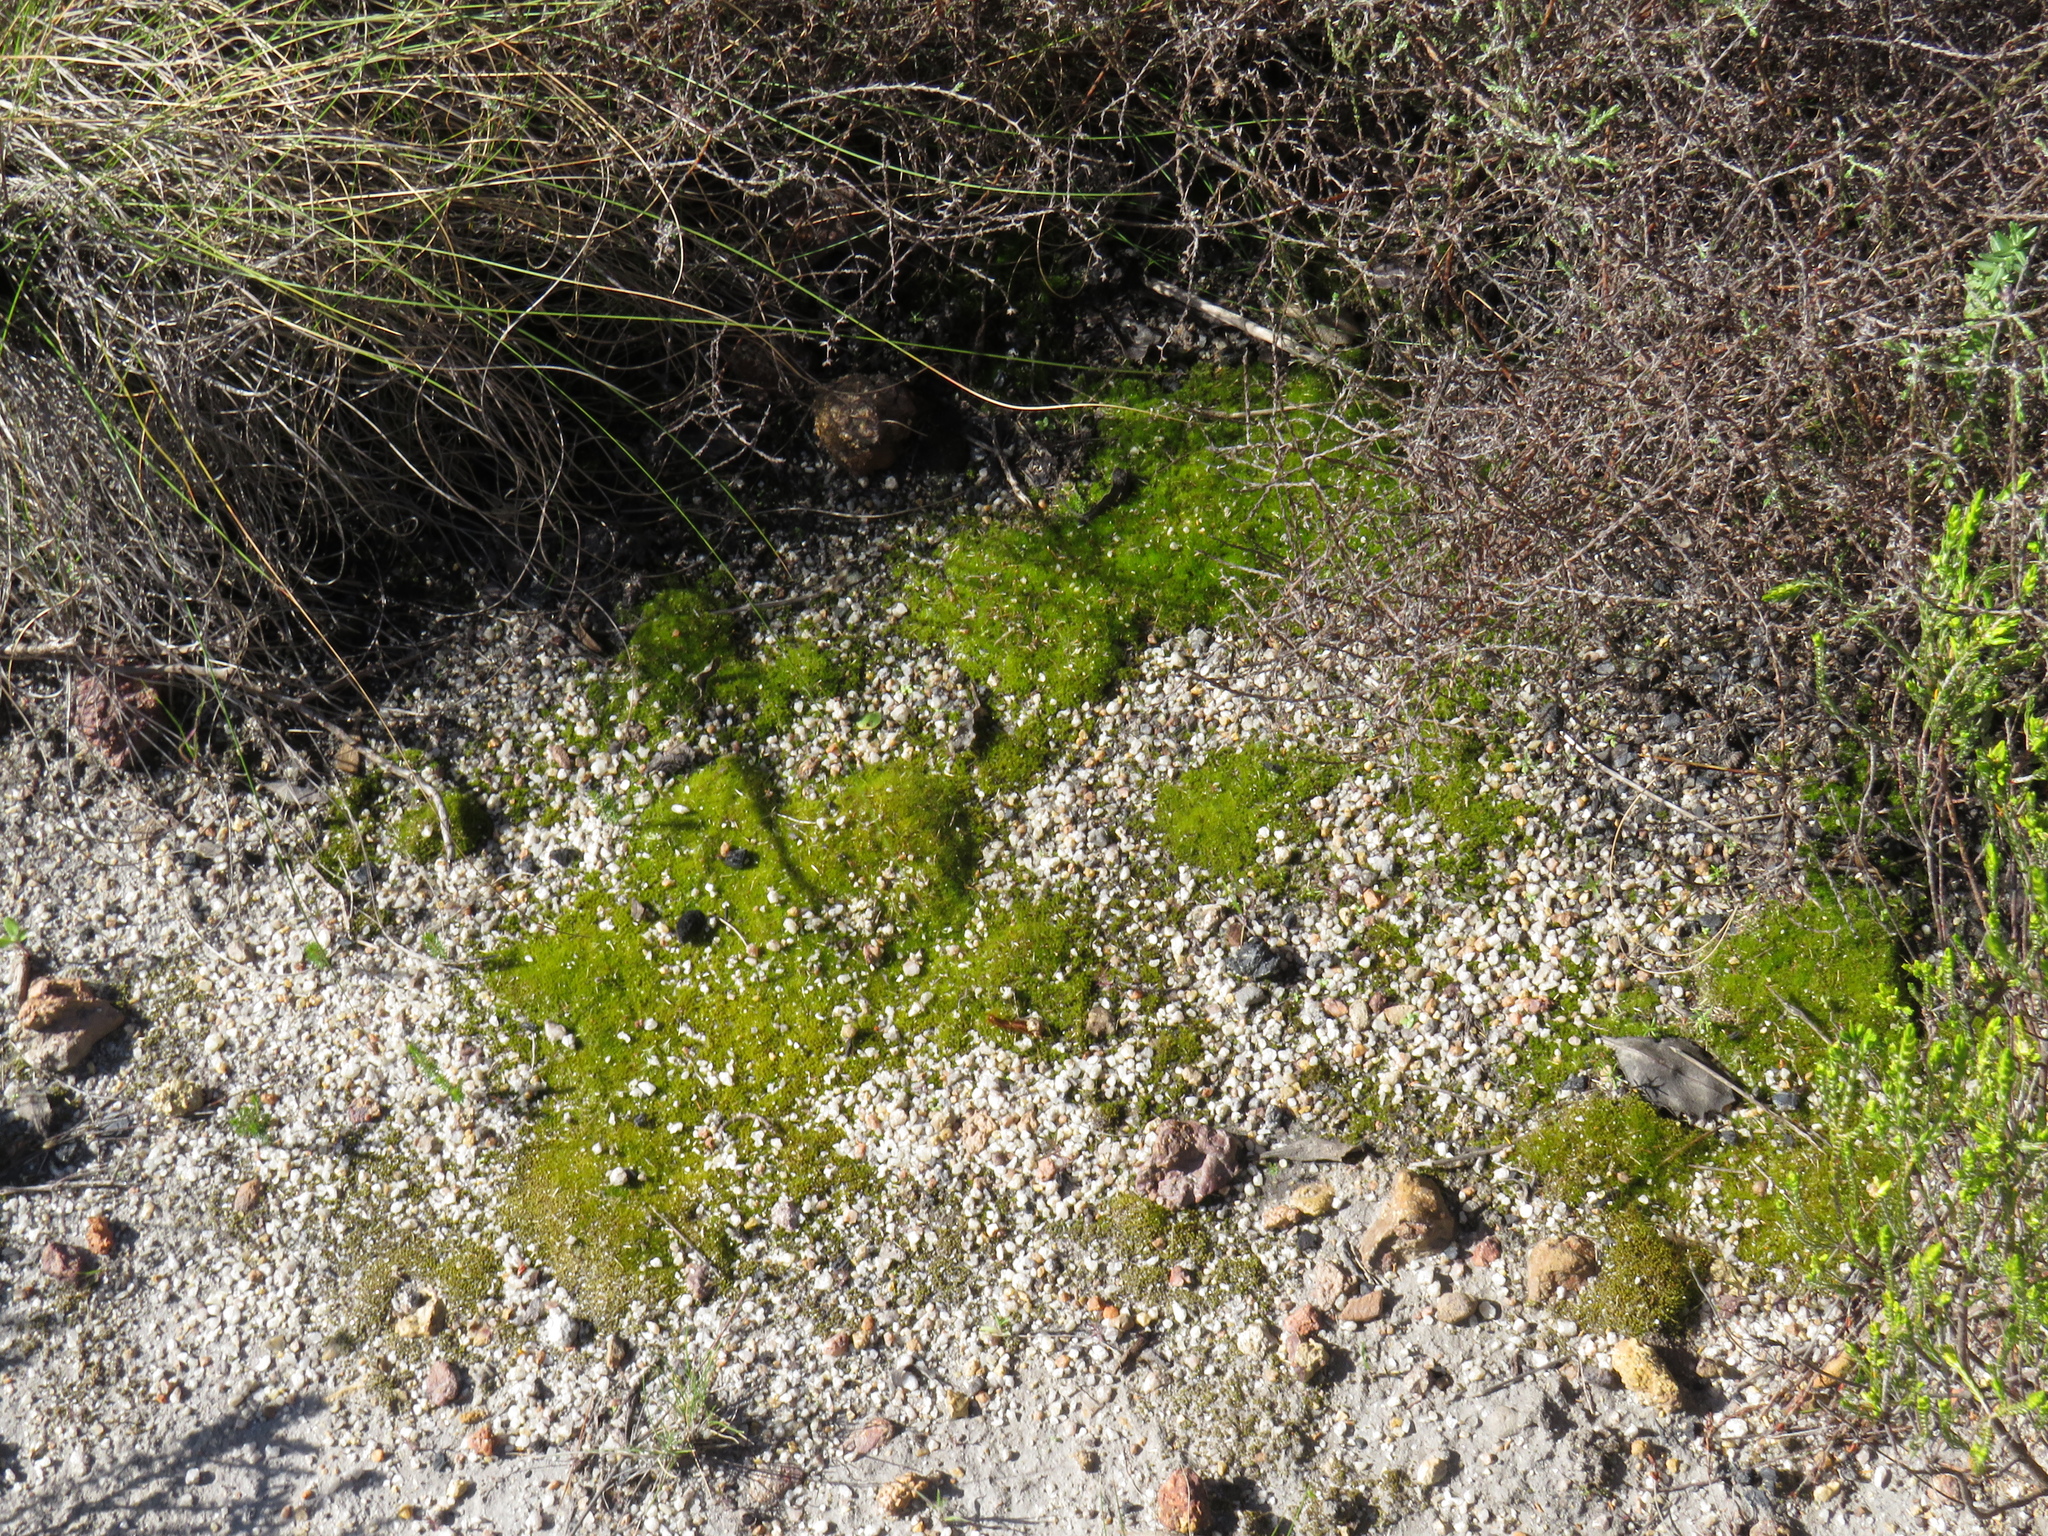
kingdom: Plantae
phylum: Bryophyta
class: Bryopsida
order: Dicranales
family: Ditrichaceae
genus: Ceratodon
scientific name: Ceratodon purpureus
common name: Redshank
